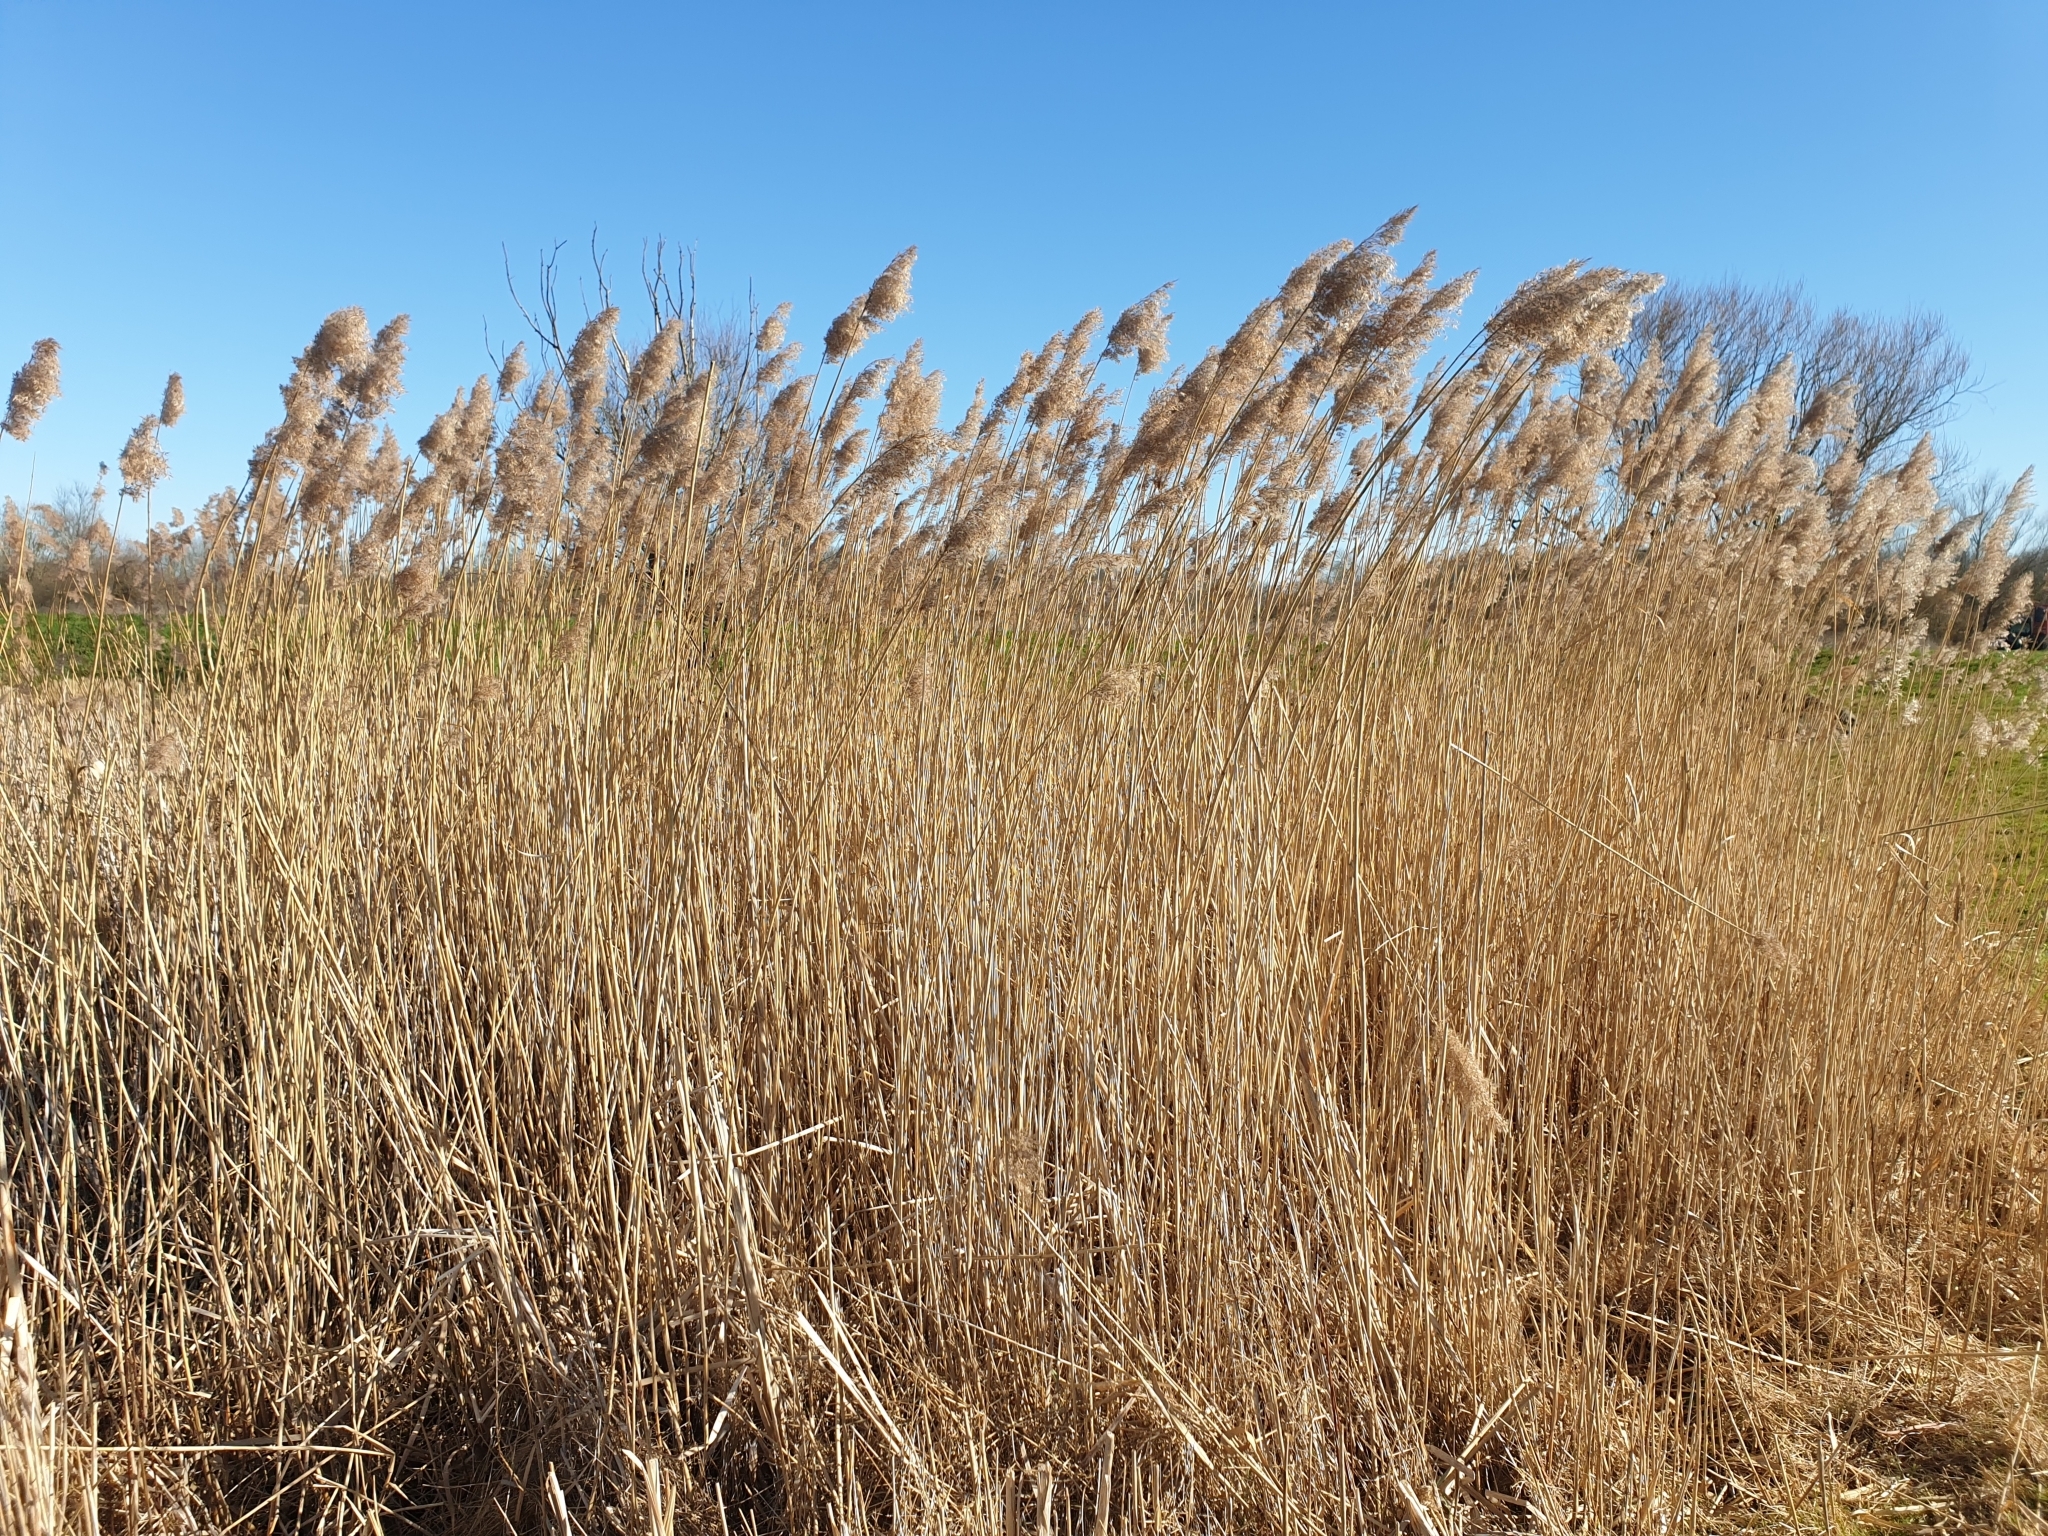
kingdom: Plantae
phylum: Tracheophyta
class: Liliopsida
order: Poales
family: Poaceae
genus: Phragmites
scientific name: Phragmites australis
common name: Common reed
